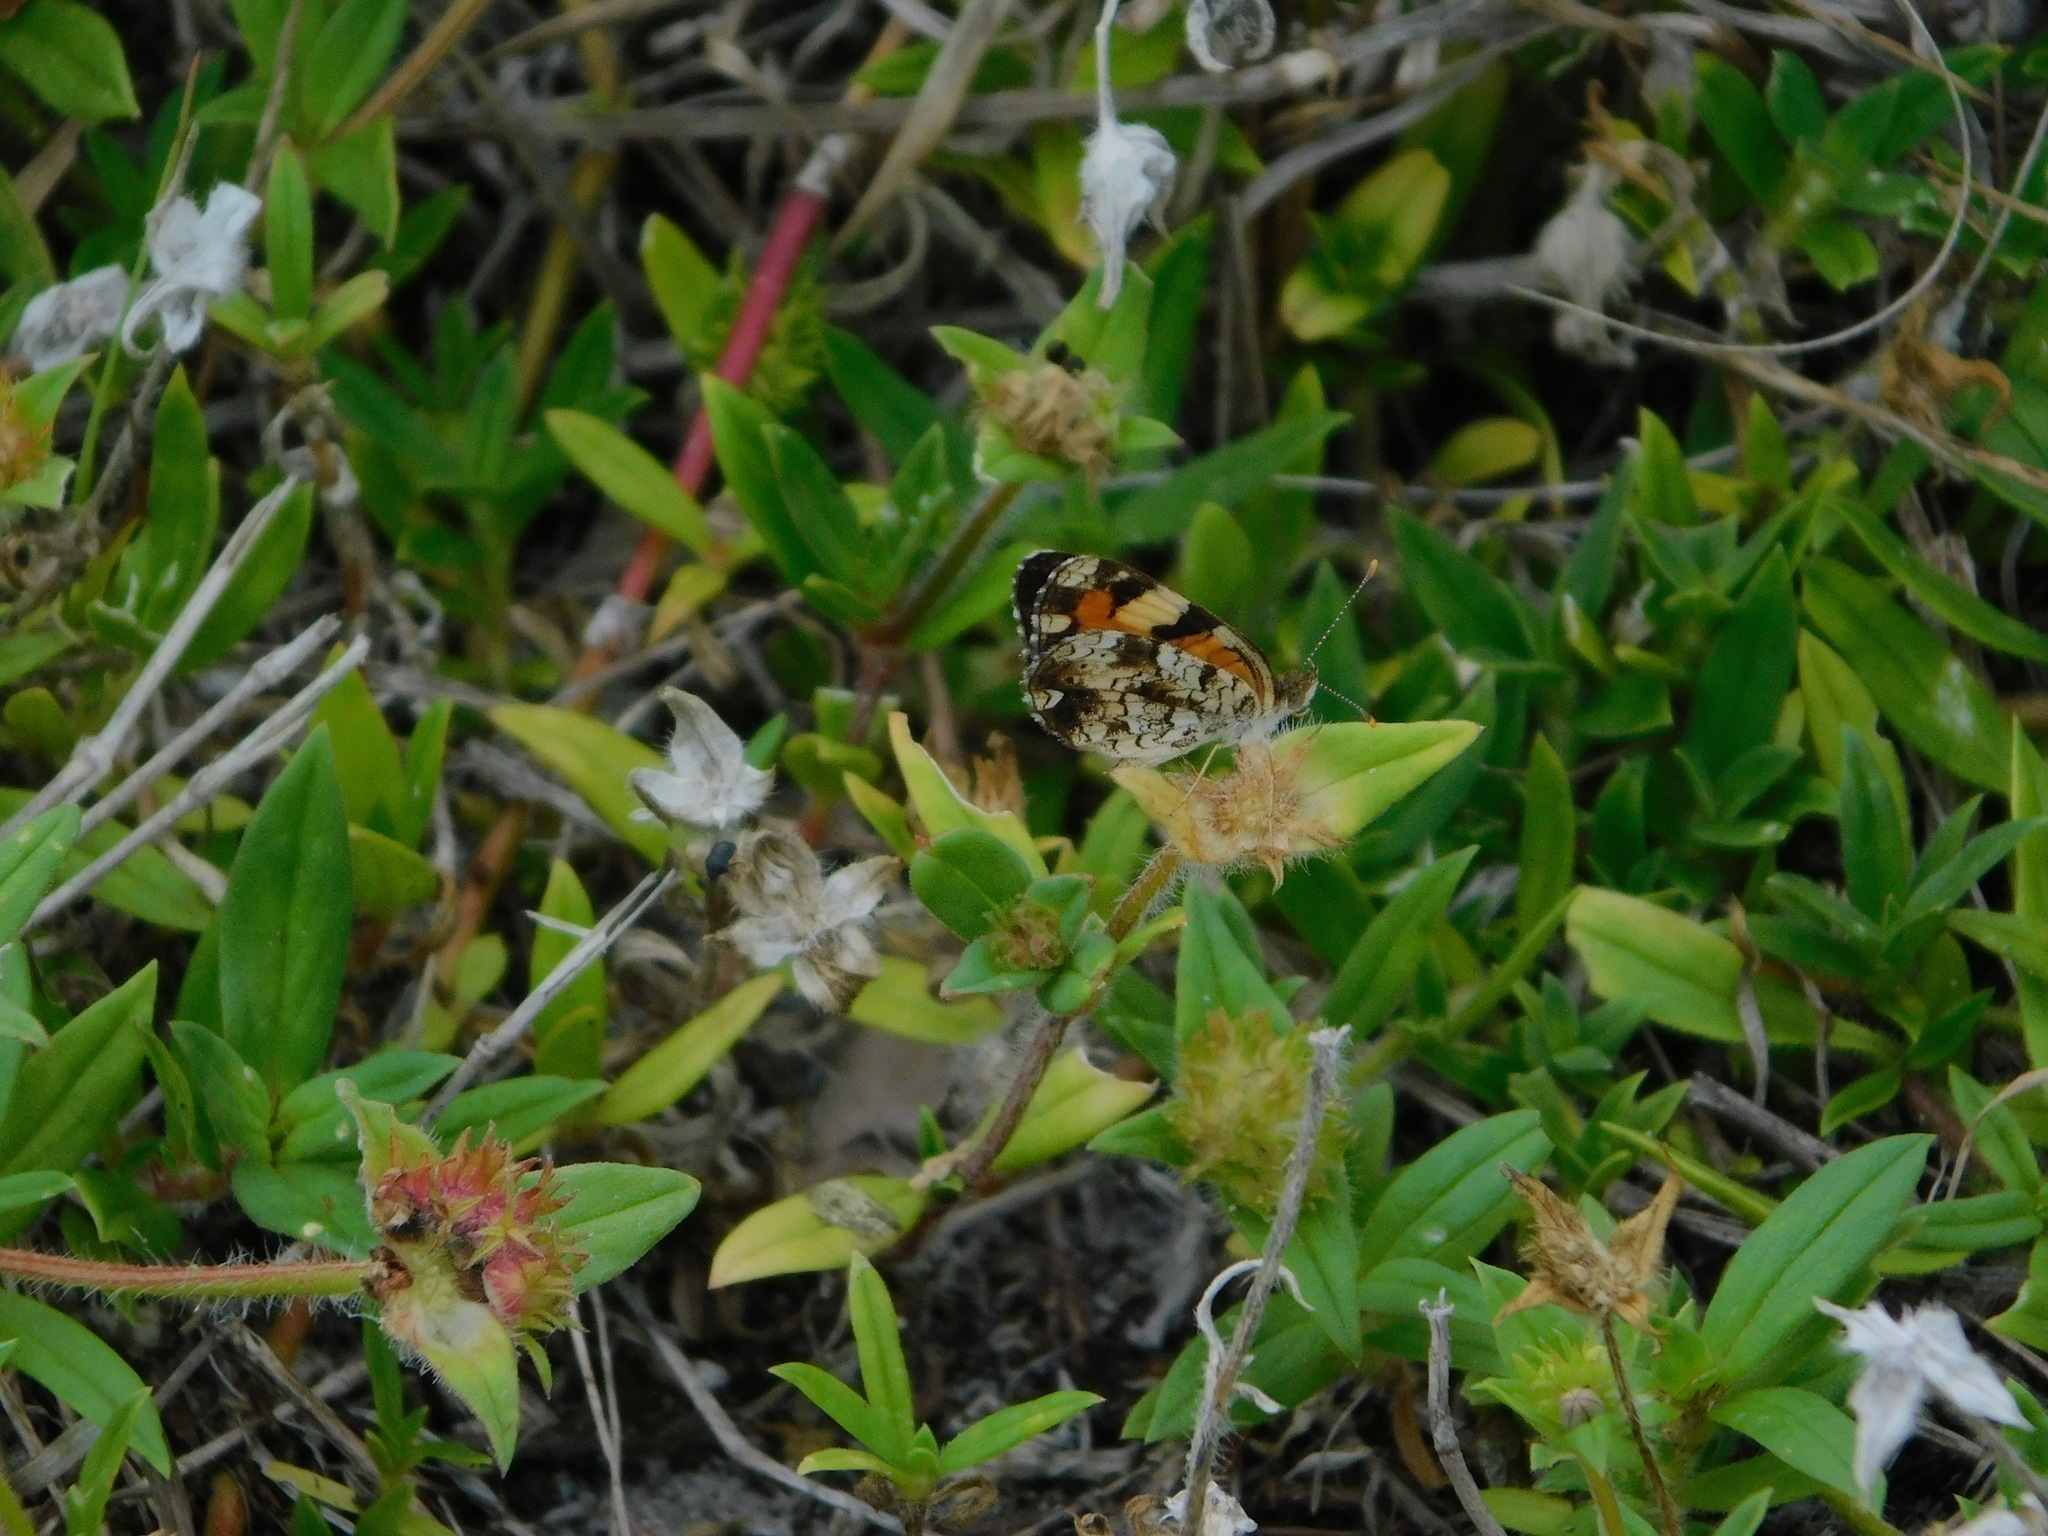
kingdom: Animalia
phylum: Arthropoda
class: Insecta
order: Lepidoptera
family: Nymphalidae
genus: Phyciodes
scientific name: Phyciodes phaon
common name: Phaon crescent
